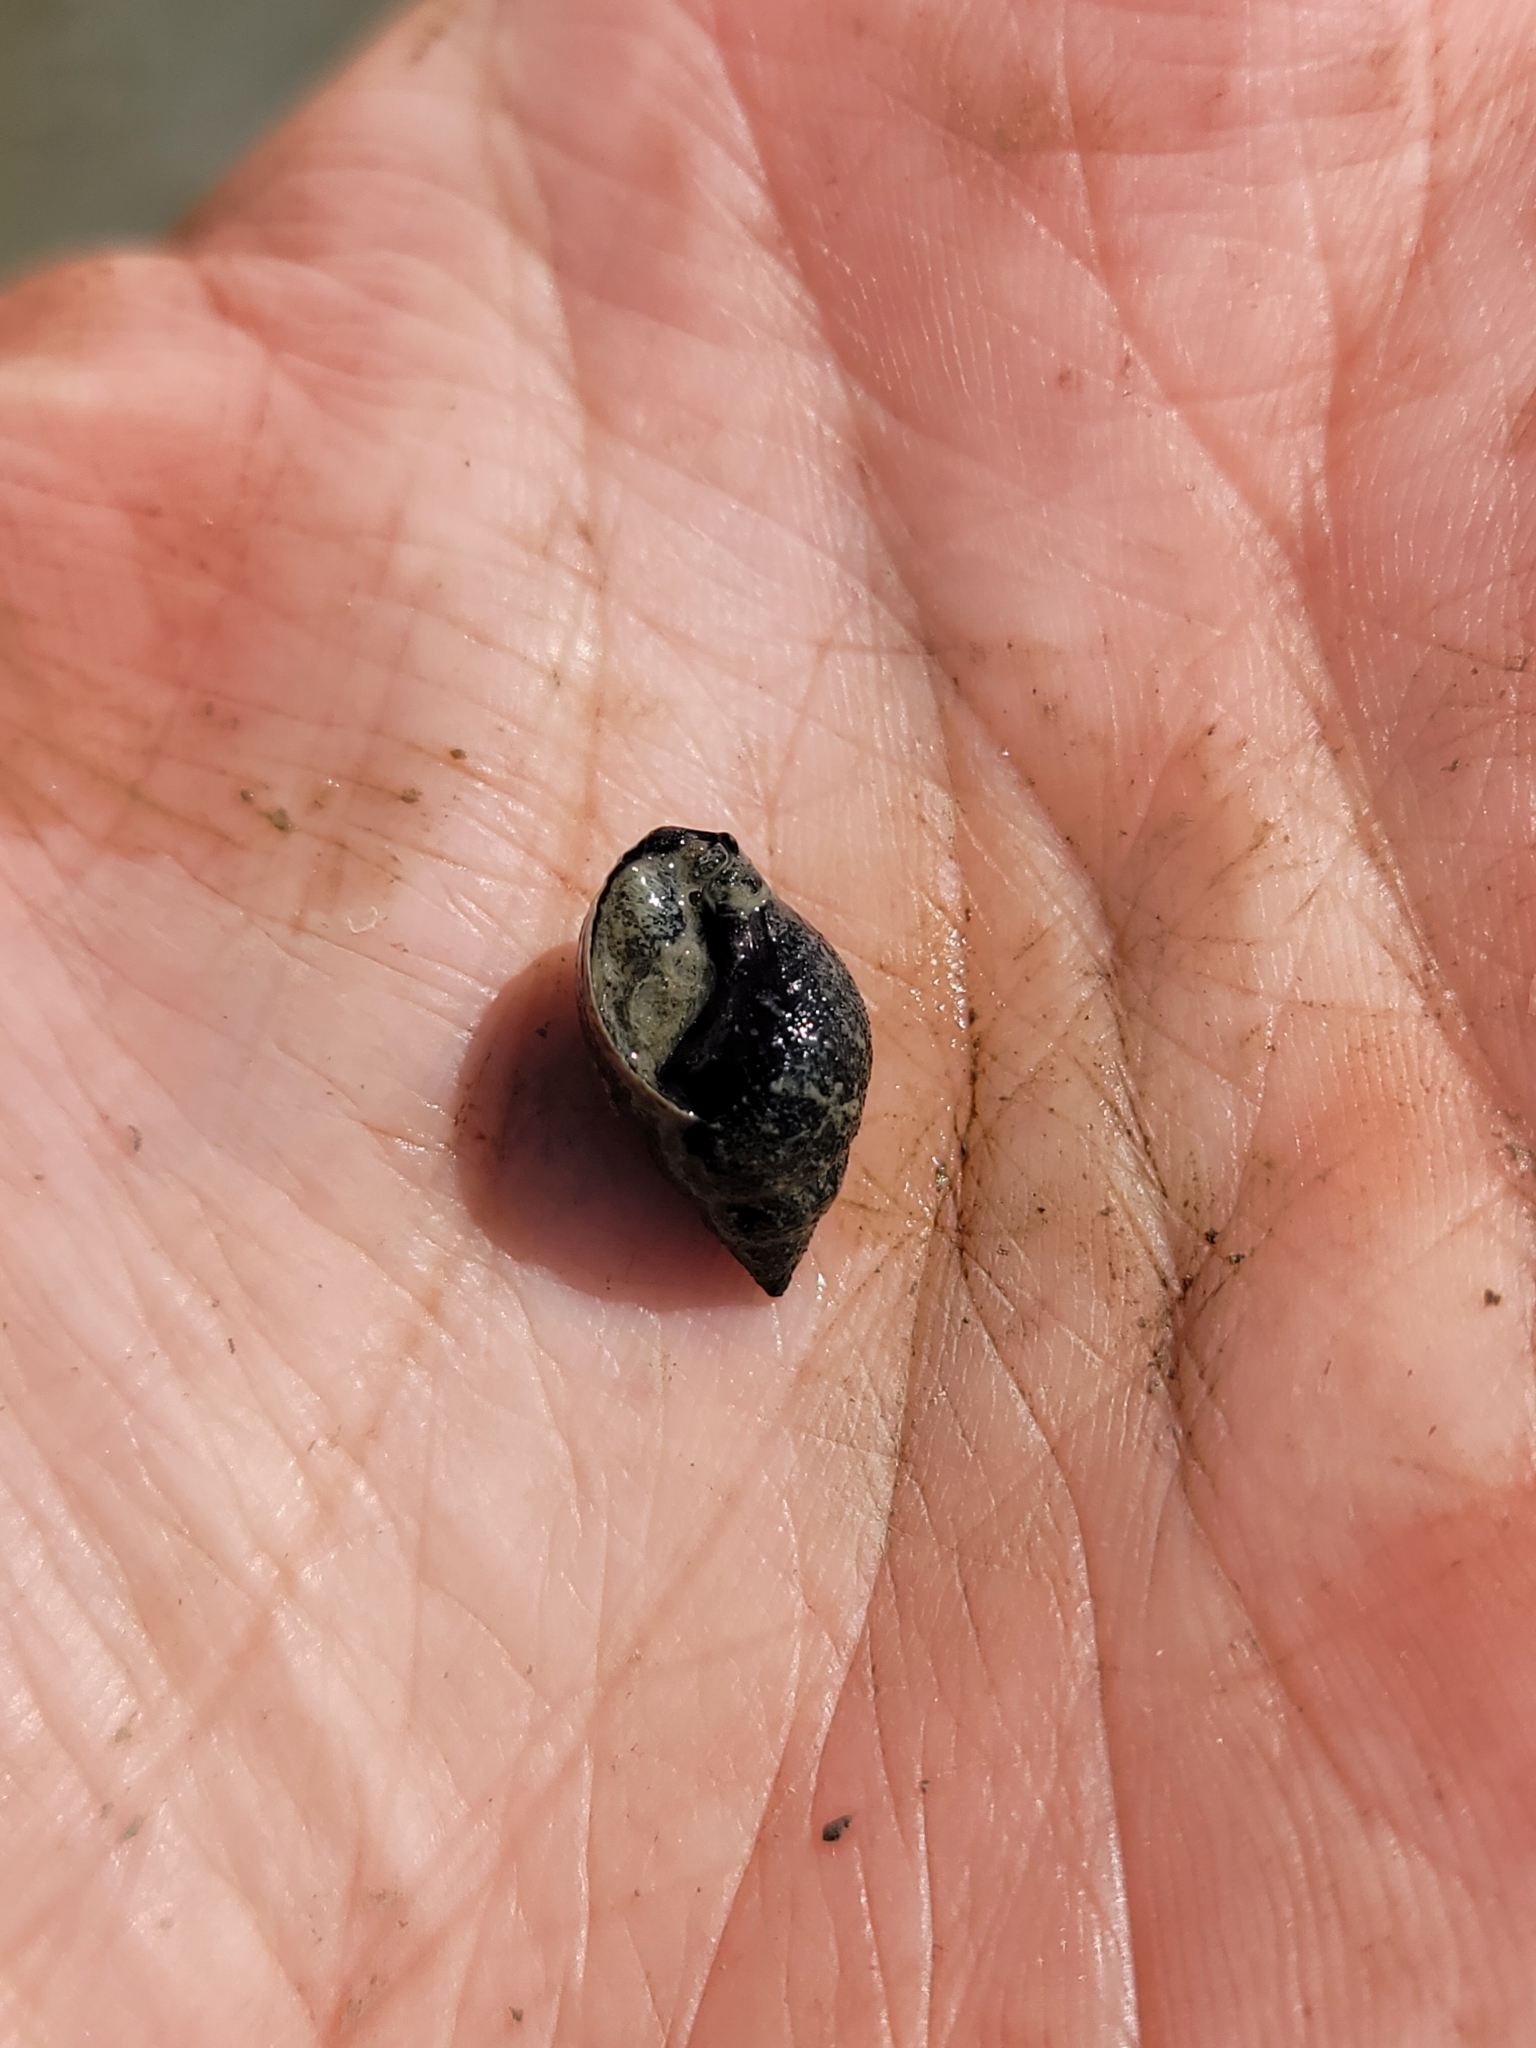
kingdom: Animalia
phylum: Mollusca
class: Gastropoda
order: Neogastropoda
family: Nassariidae
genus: Ilyanassa
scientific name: Ilyanassa obsoleta
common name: Eastern mudsnail
